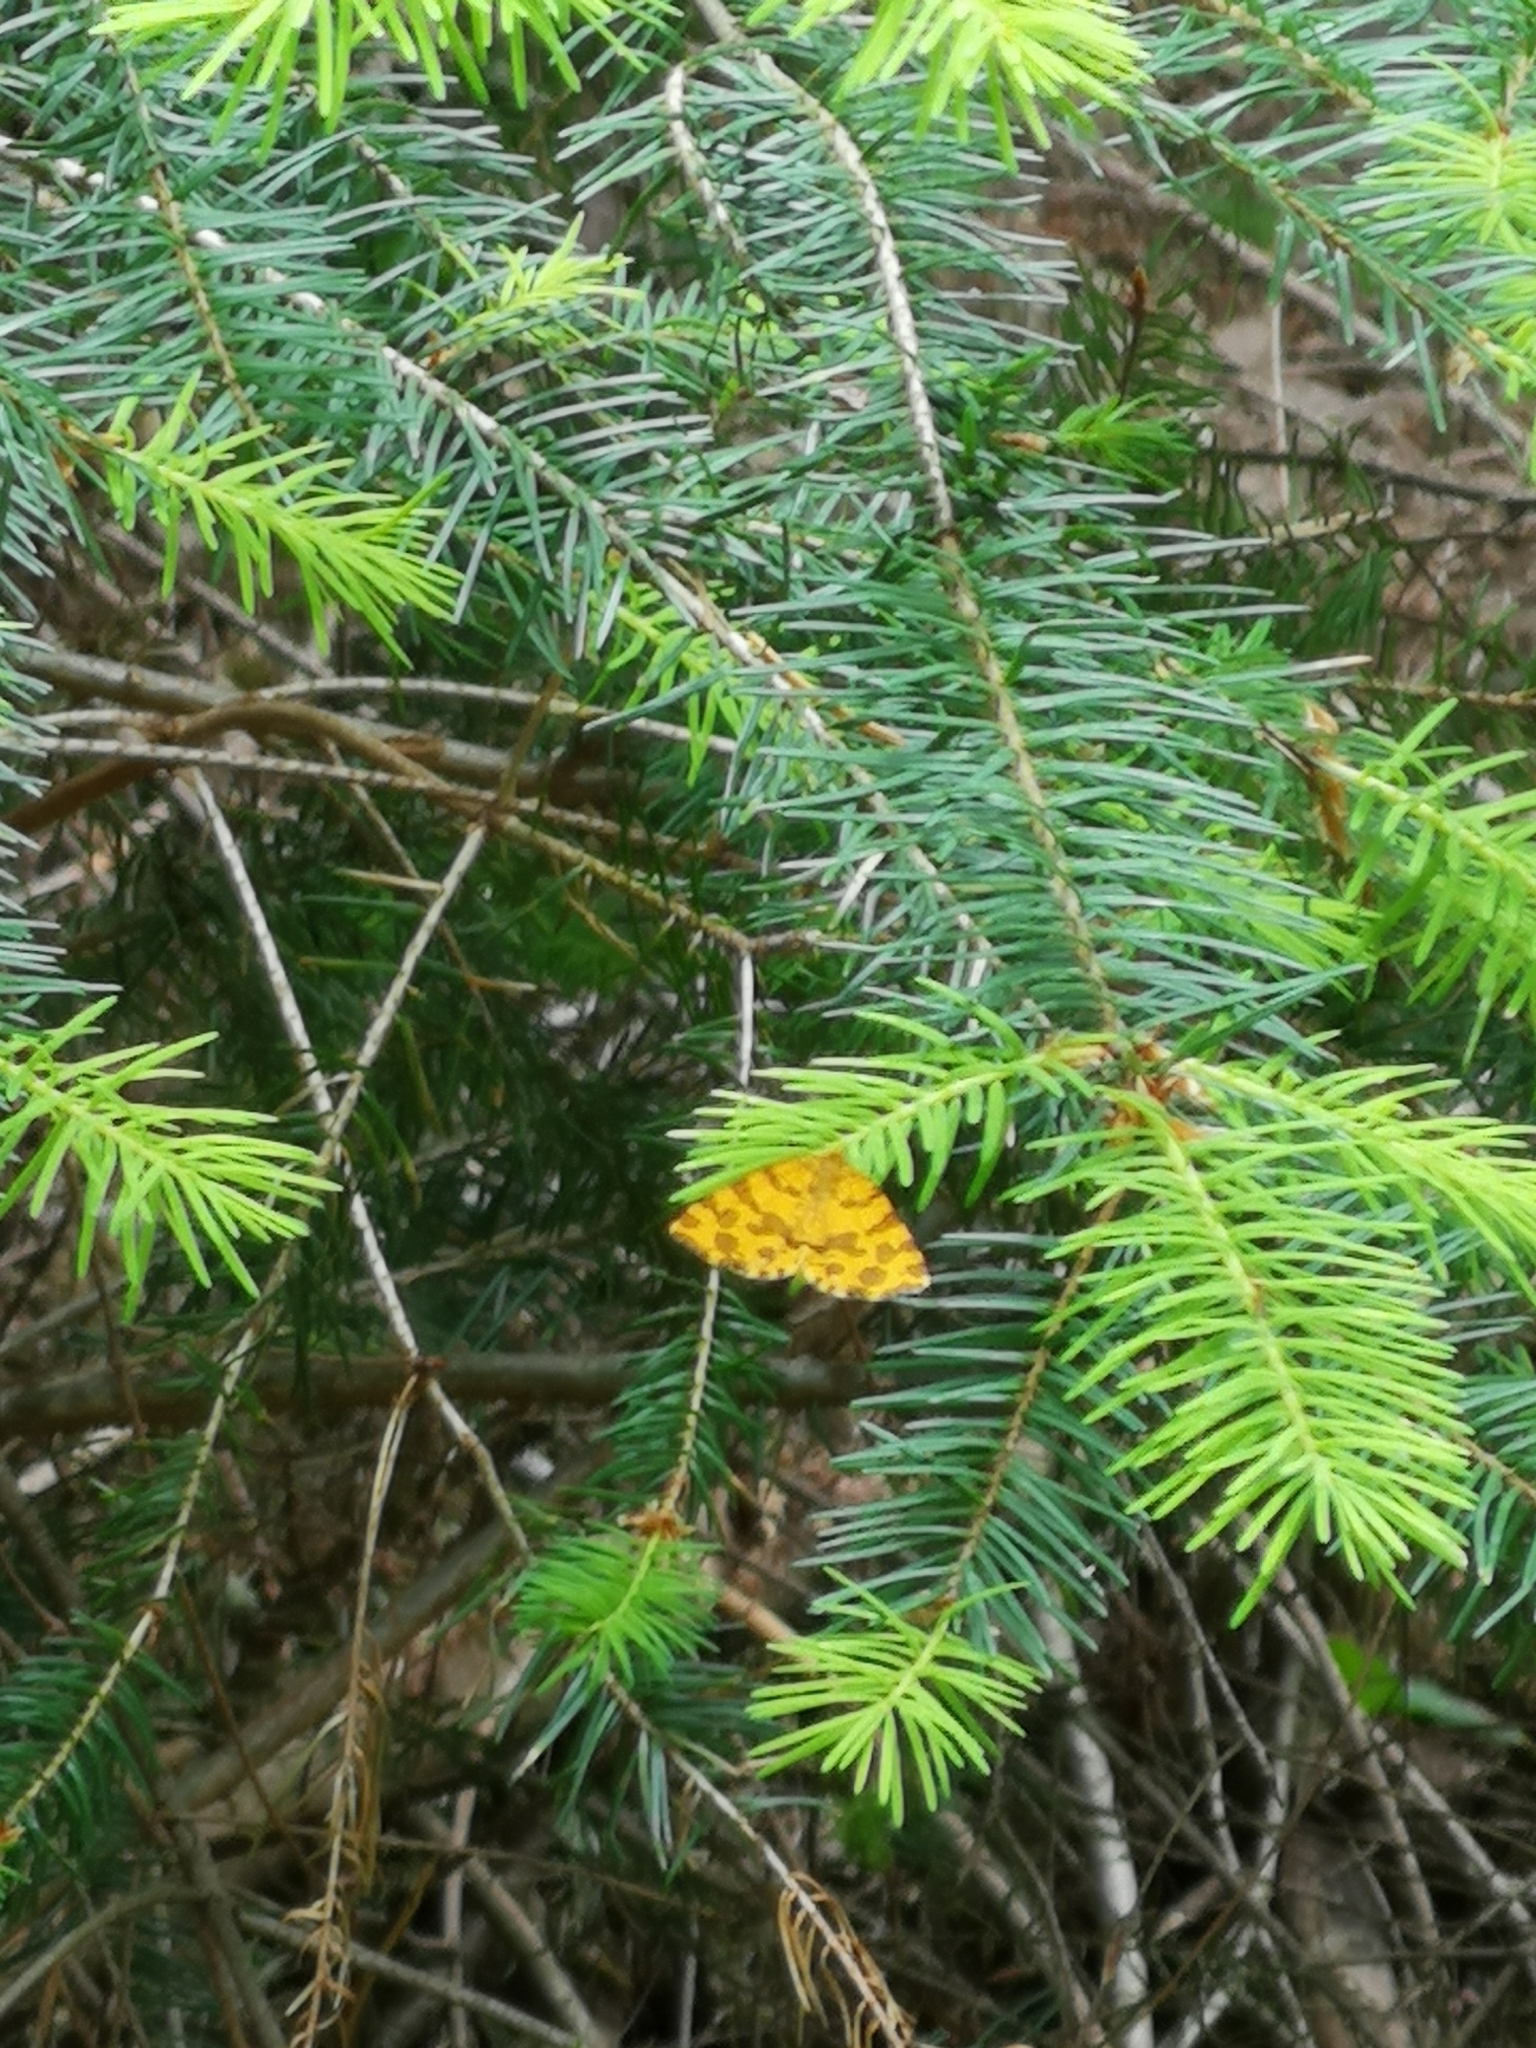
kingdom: Animalia
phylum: Arthropoda
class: Insecta
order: Lepidoptera
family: Geometridae
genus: Pseudopanthera
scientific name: Pseudopanthera macularia
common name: Speckled yellow
